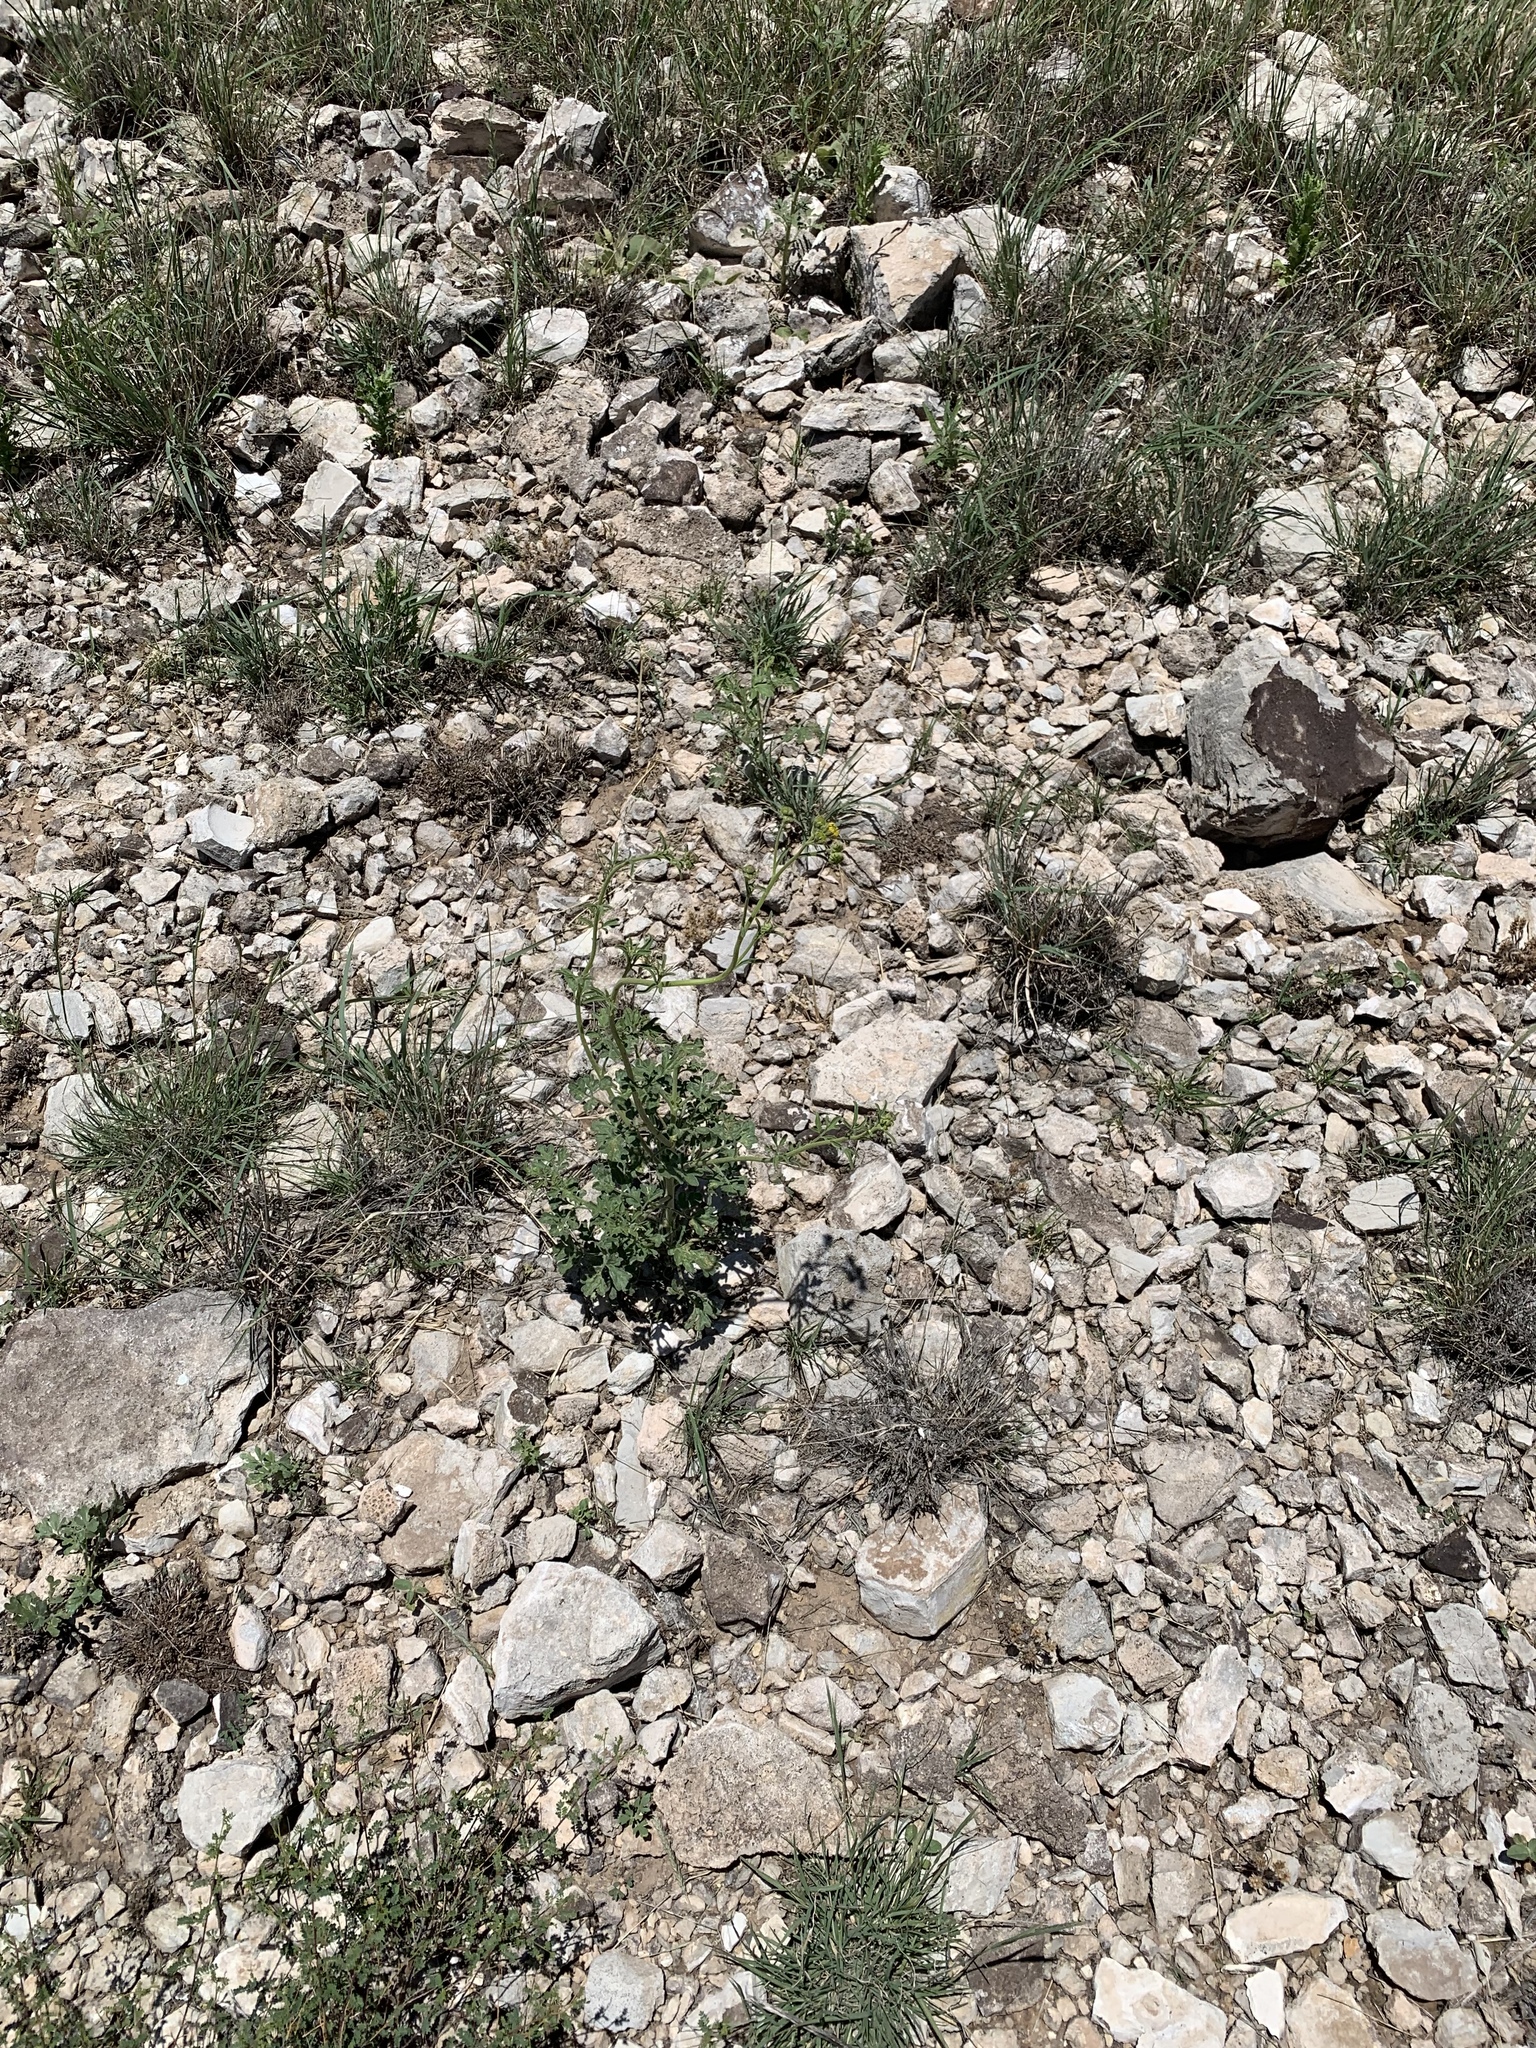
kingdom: Plantae
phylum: Tracheophyta
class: Magnoliopsida
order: Asterales
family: Asteraceae
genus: Hymenothrix
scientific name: Hymenothrix dissecta
